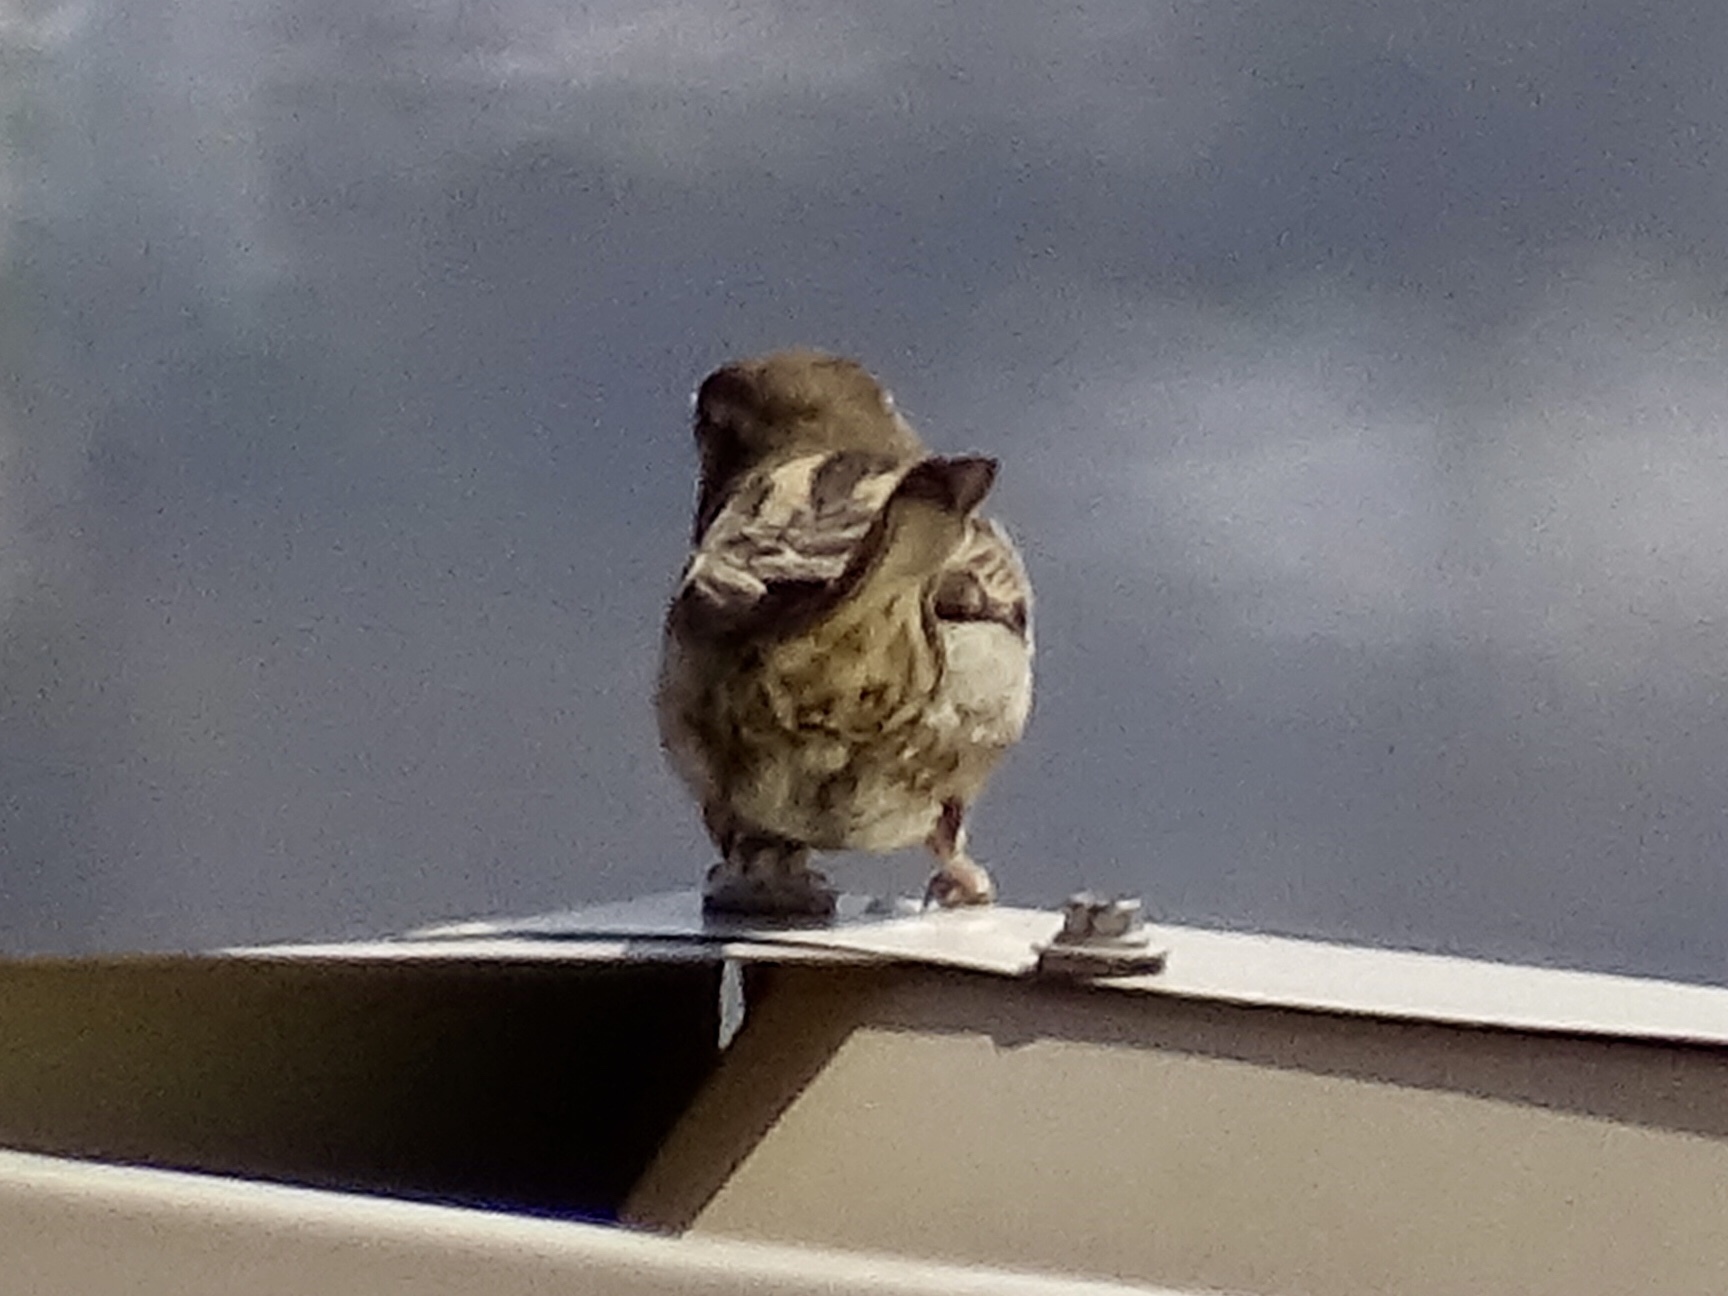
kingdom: Animalia
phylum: Chordata
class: Aves
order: Passeriformes
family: Passeridae
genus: Passer
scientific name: Passer domesticus
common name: House sparrow
